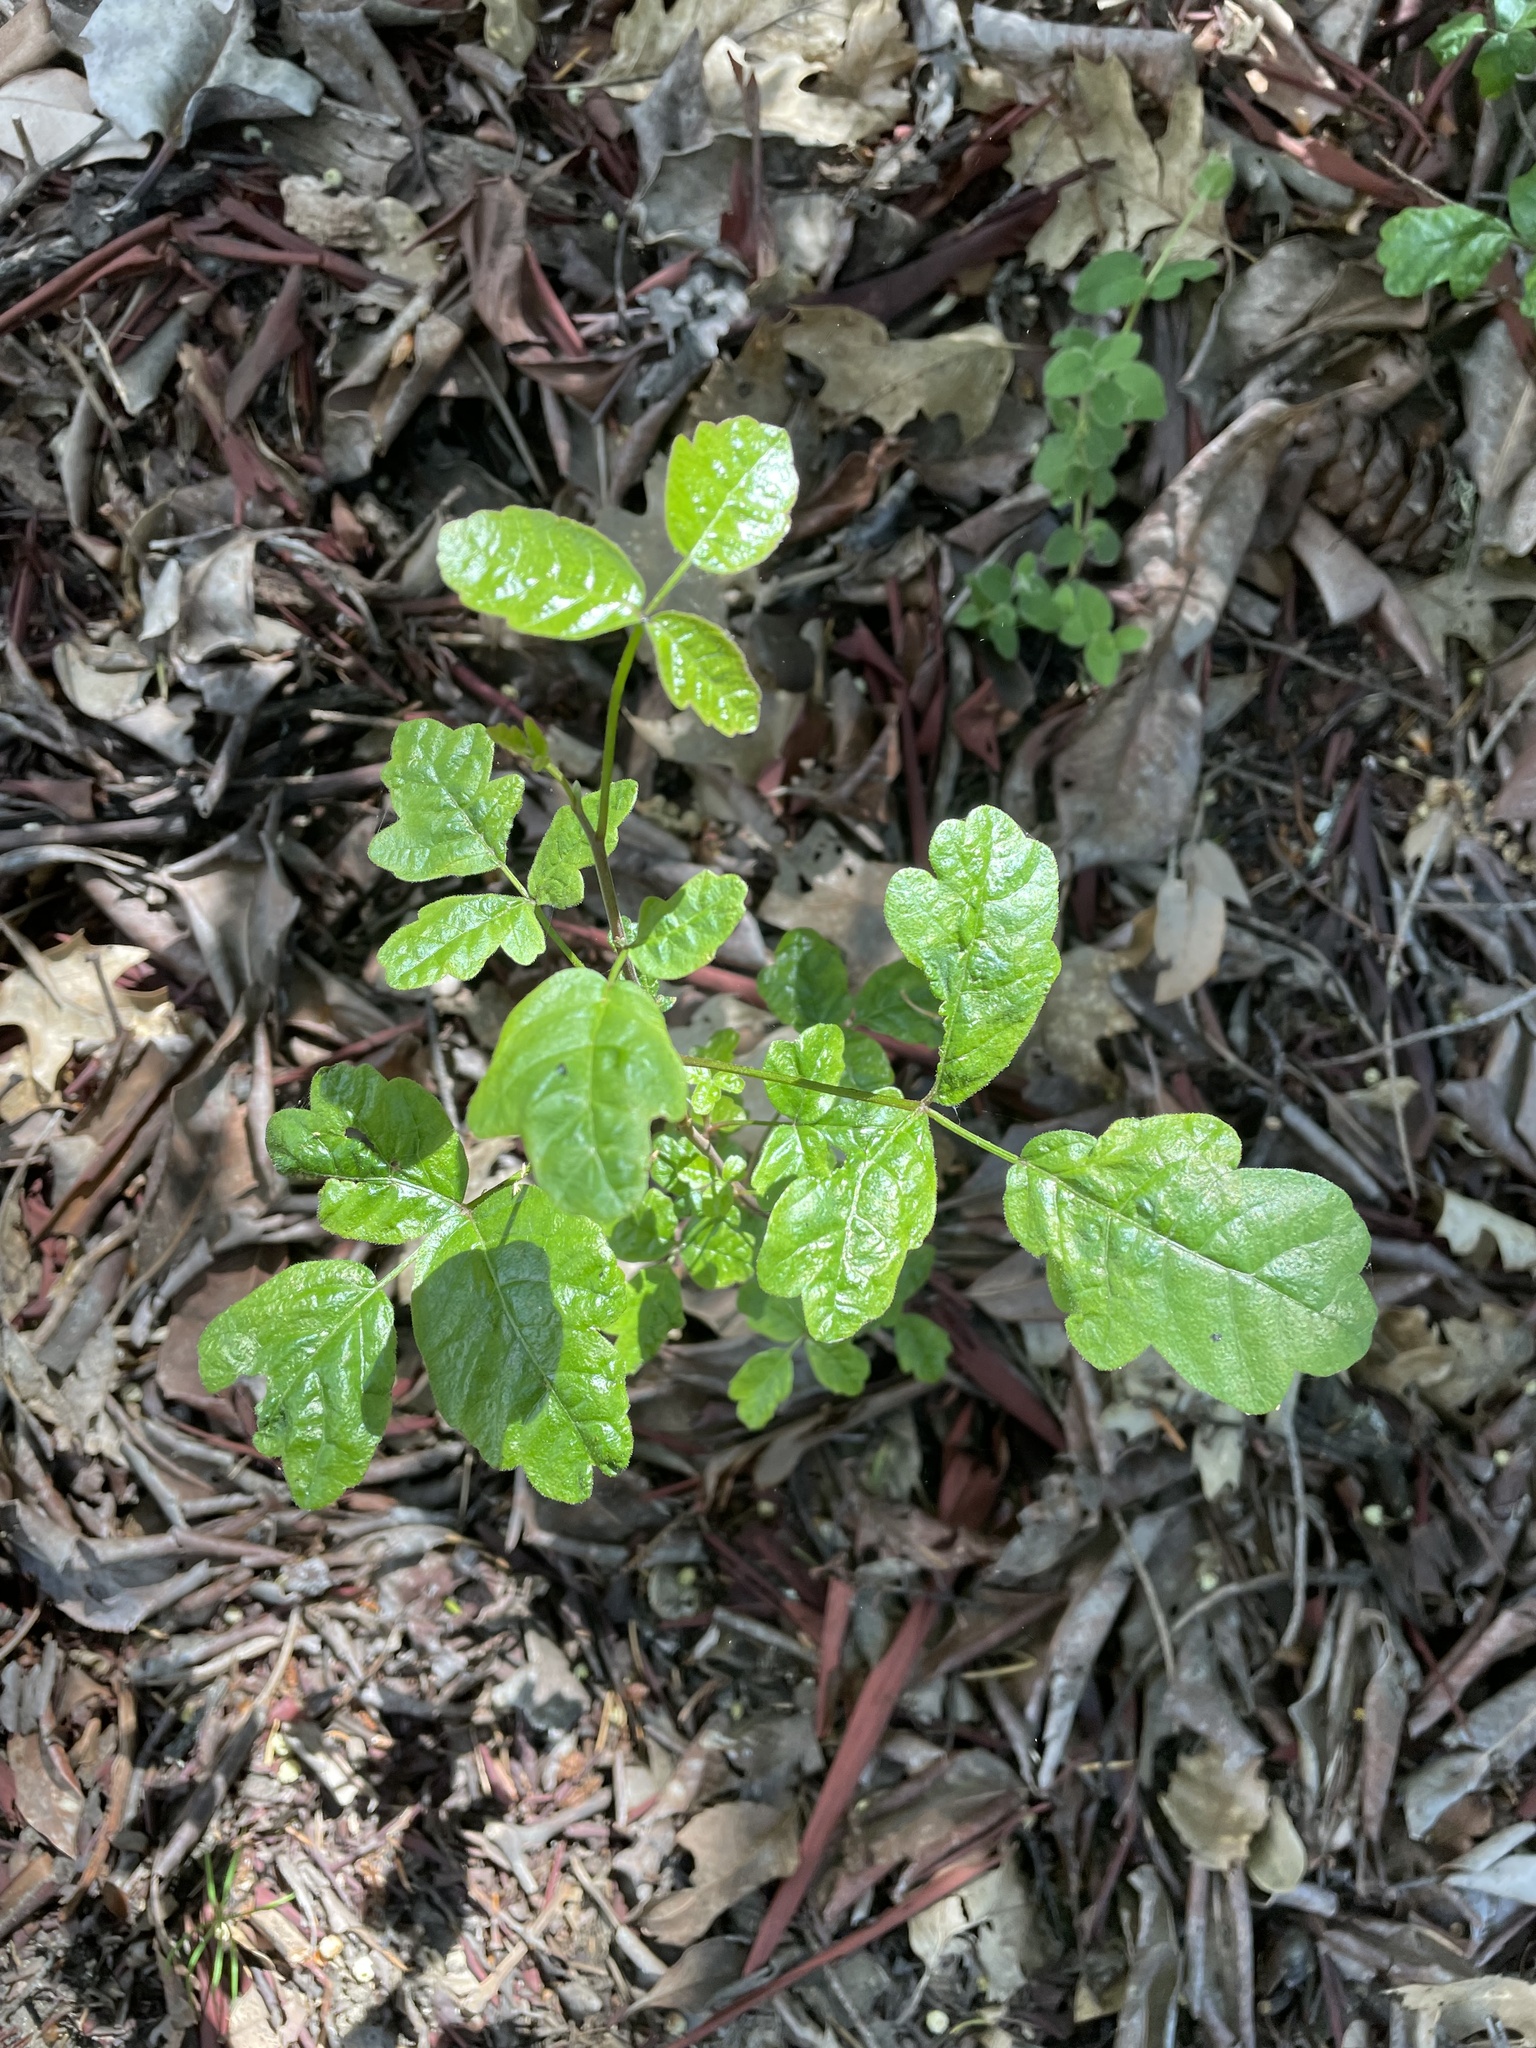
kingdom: Plantae
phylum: Tracheophyta
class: Magnoliopsida
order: Sapindales
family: Anacardiaceae
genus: Toxicodendron
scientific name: Toxicodendron diversilobum
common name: Pacific poison-oak
